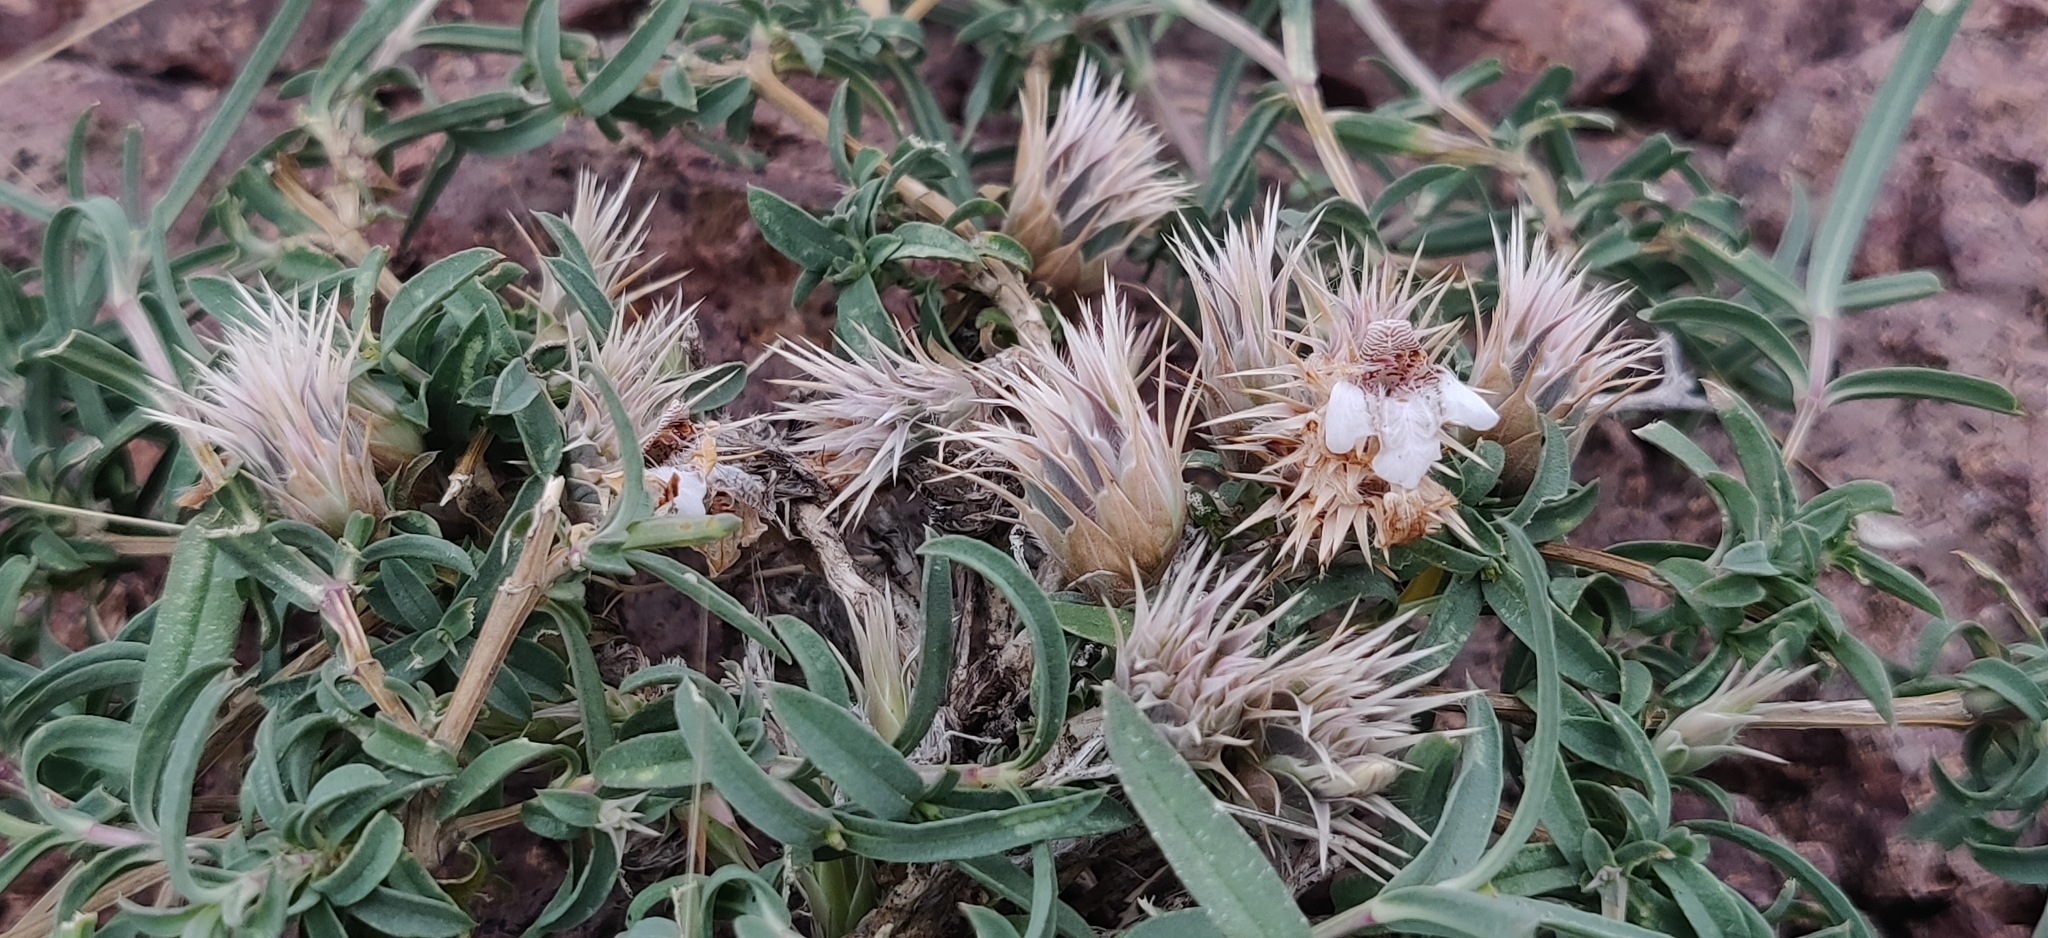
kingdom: Plantae
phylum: Tracheophyta
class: Magnoliopsida
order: Lamiales
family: Acanthaceae
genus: Lepidagathis
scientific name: Lepidagathis trinervis
